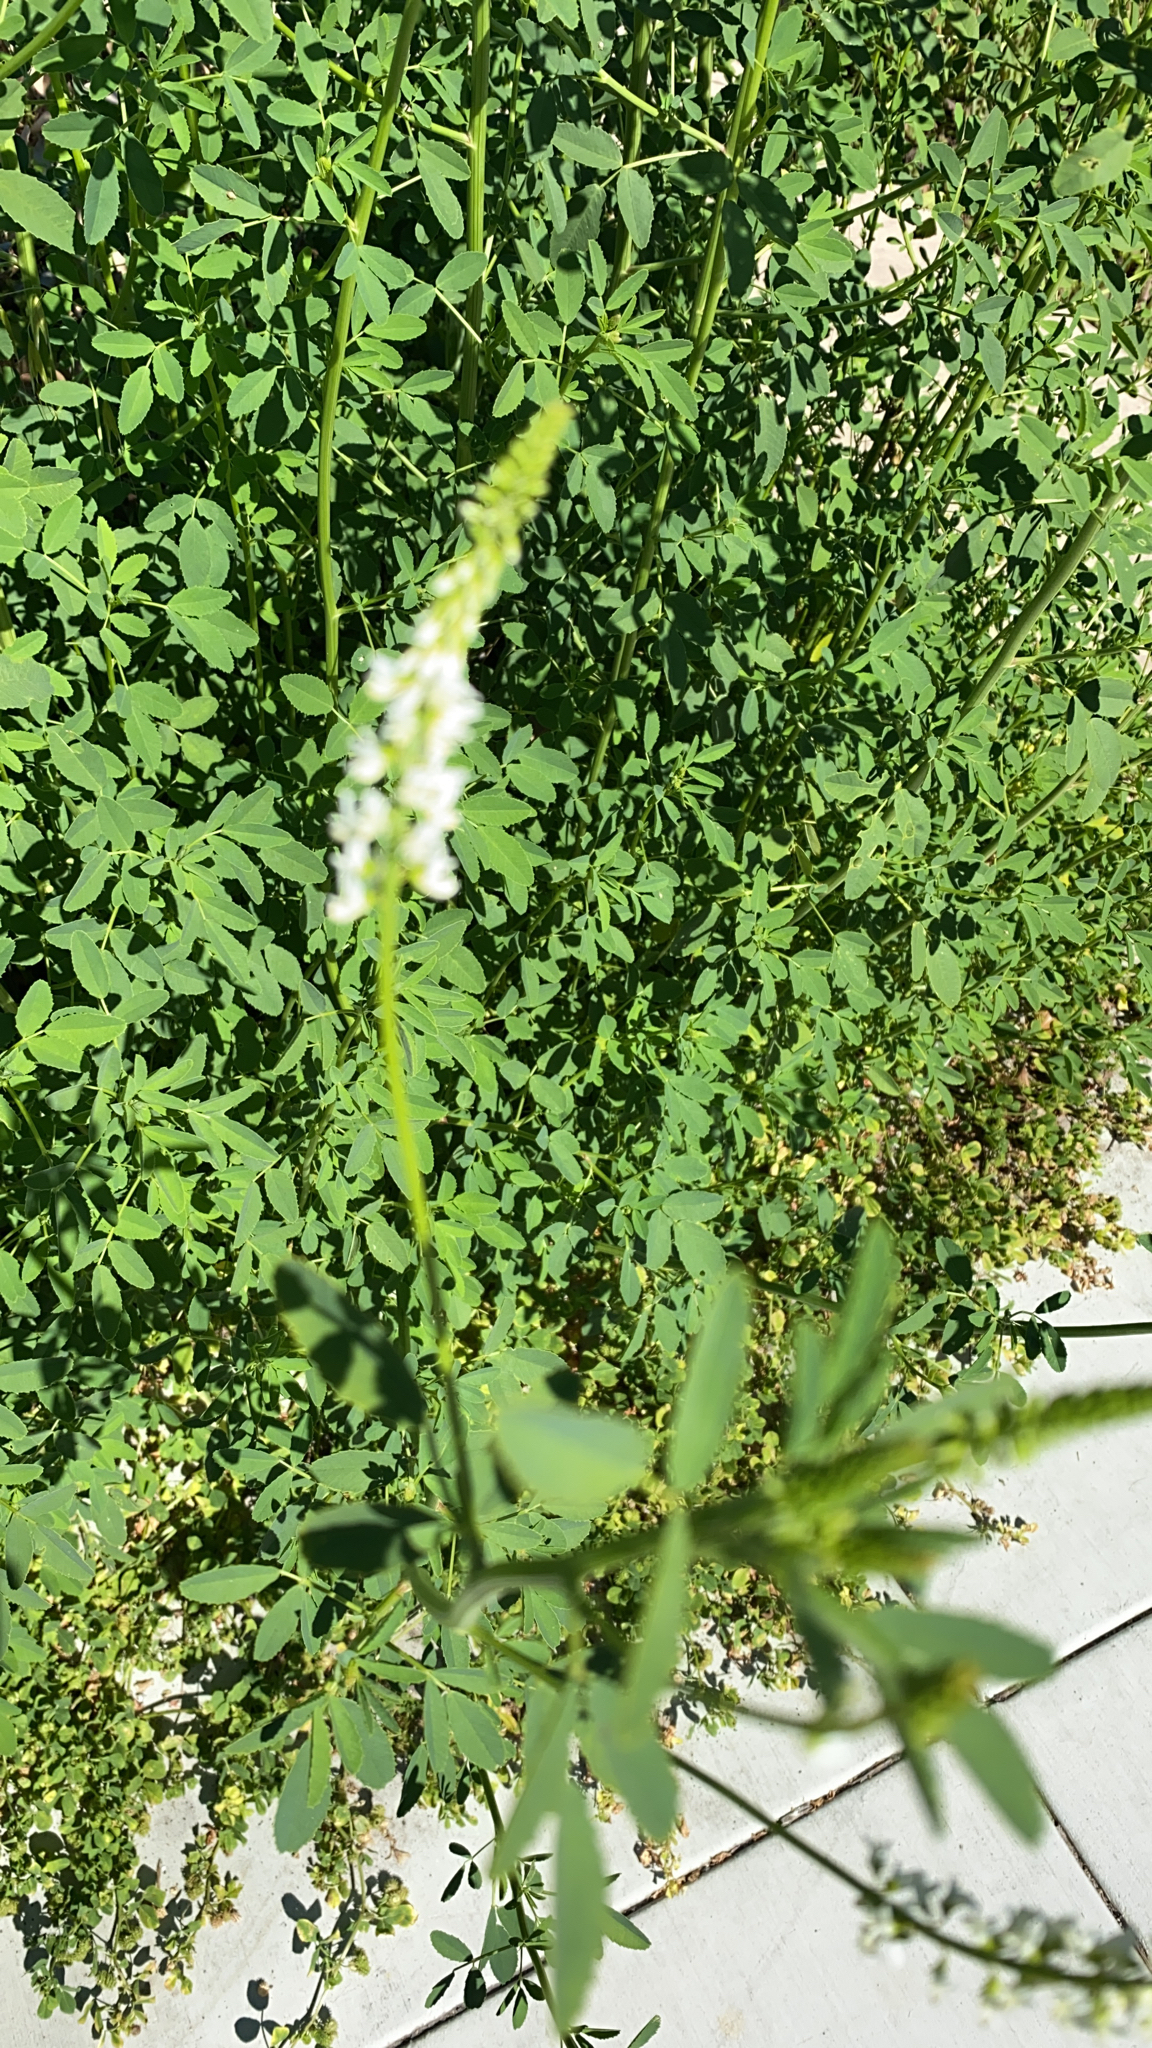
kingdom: Plantae
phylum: Tracheophyta
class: Magnoliopsida
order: Fabales
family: Fabaceae
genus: Melilotus
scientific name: Melilotus albus
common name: White melilot
